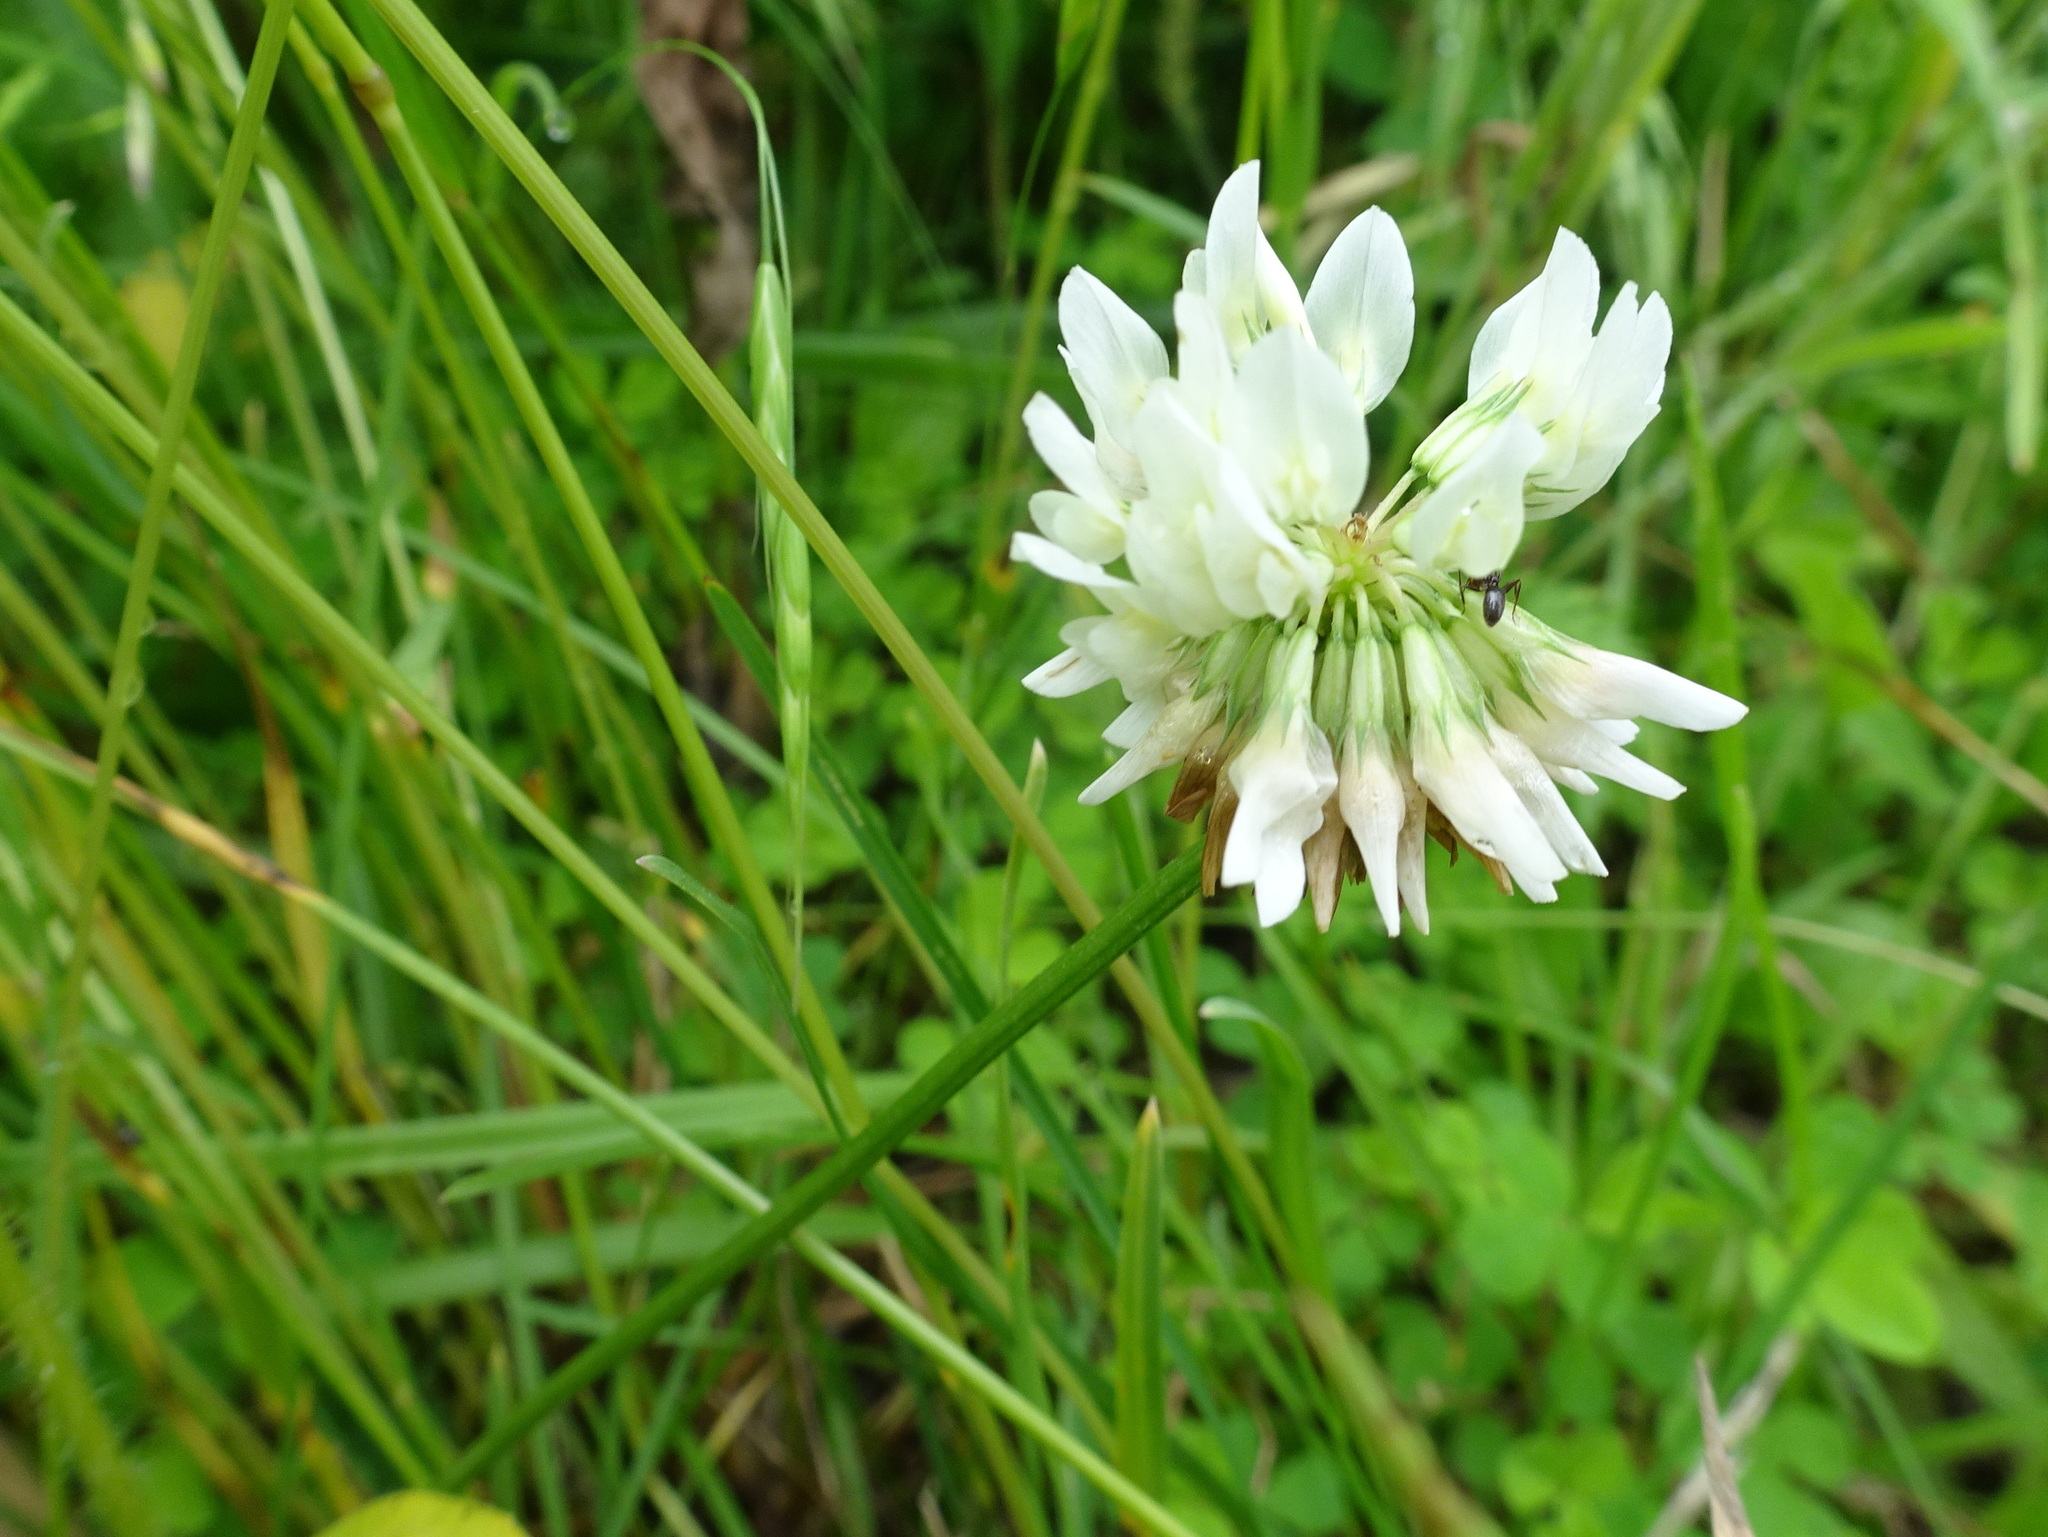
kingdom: Plantae
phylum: Tracheophyta
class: Magnoliopsida
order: Fabales
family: Fabaceae
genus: Trifolium
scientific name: Trifolium repens
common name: White clover
